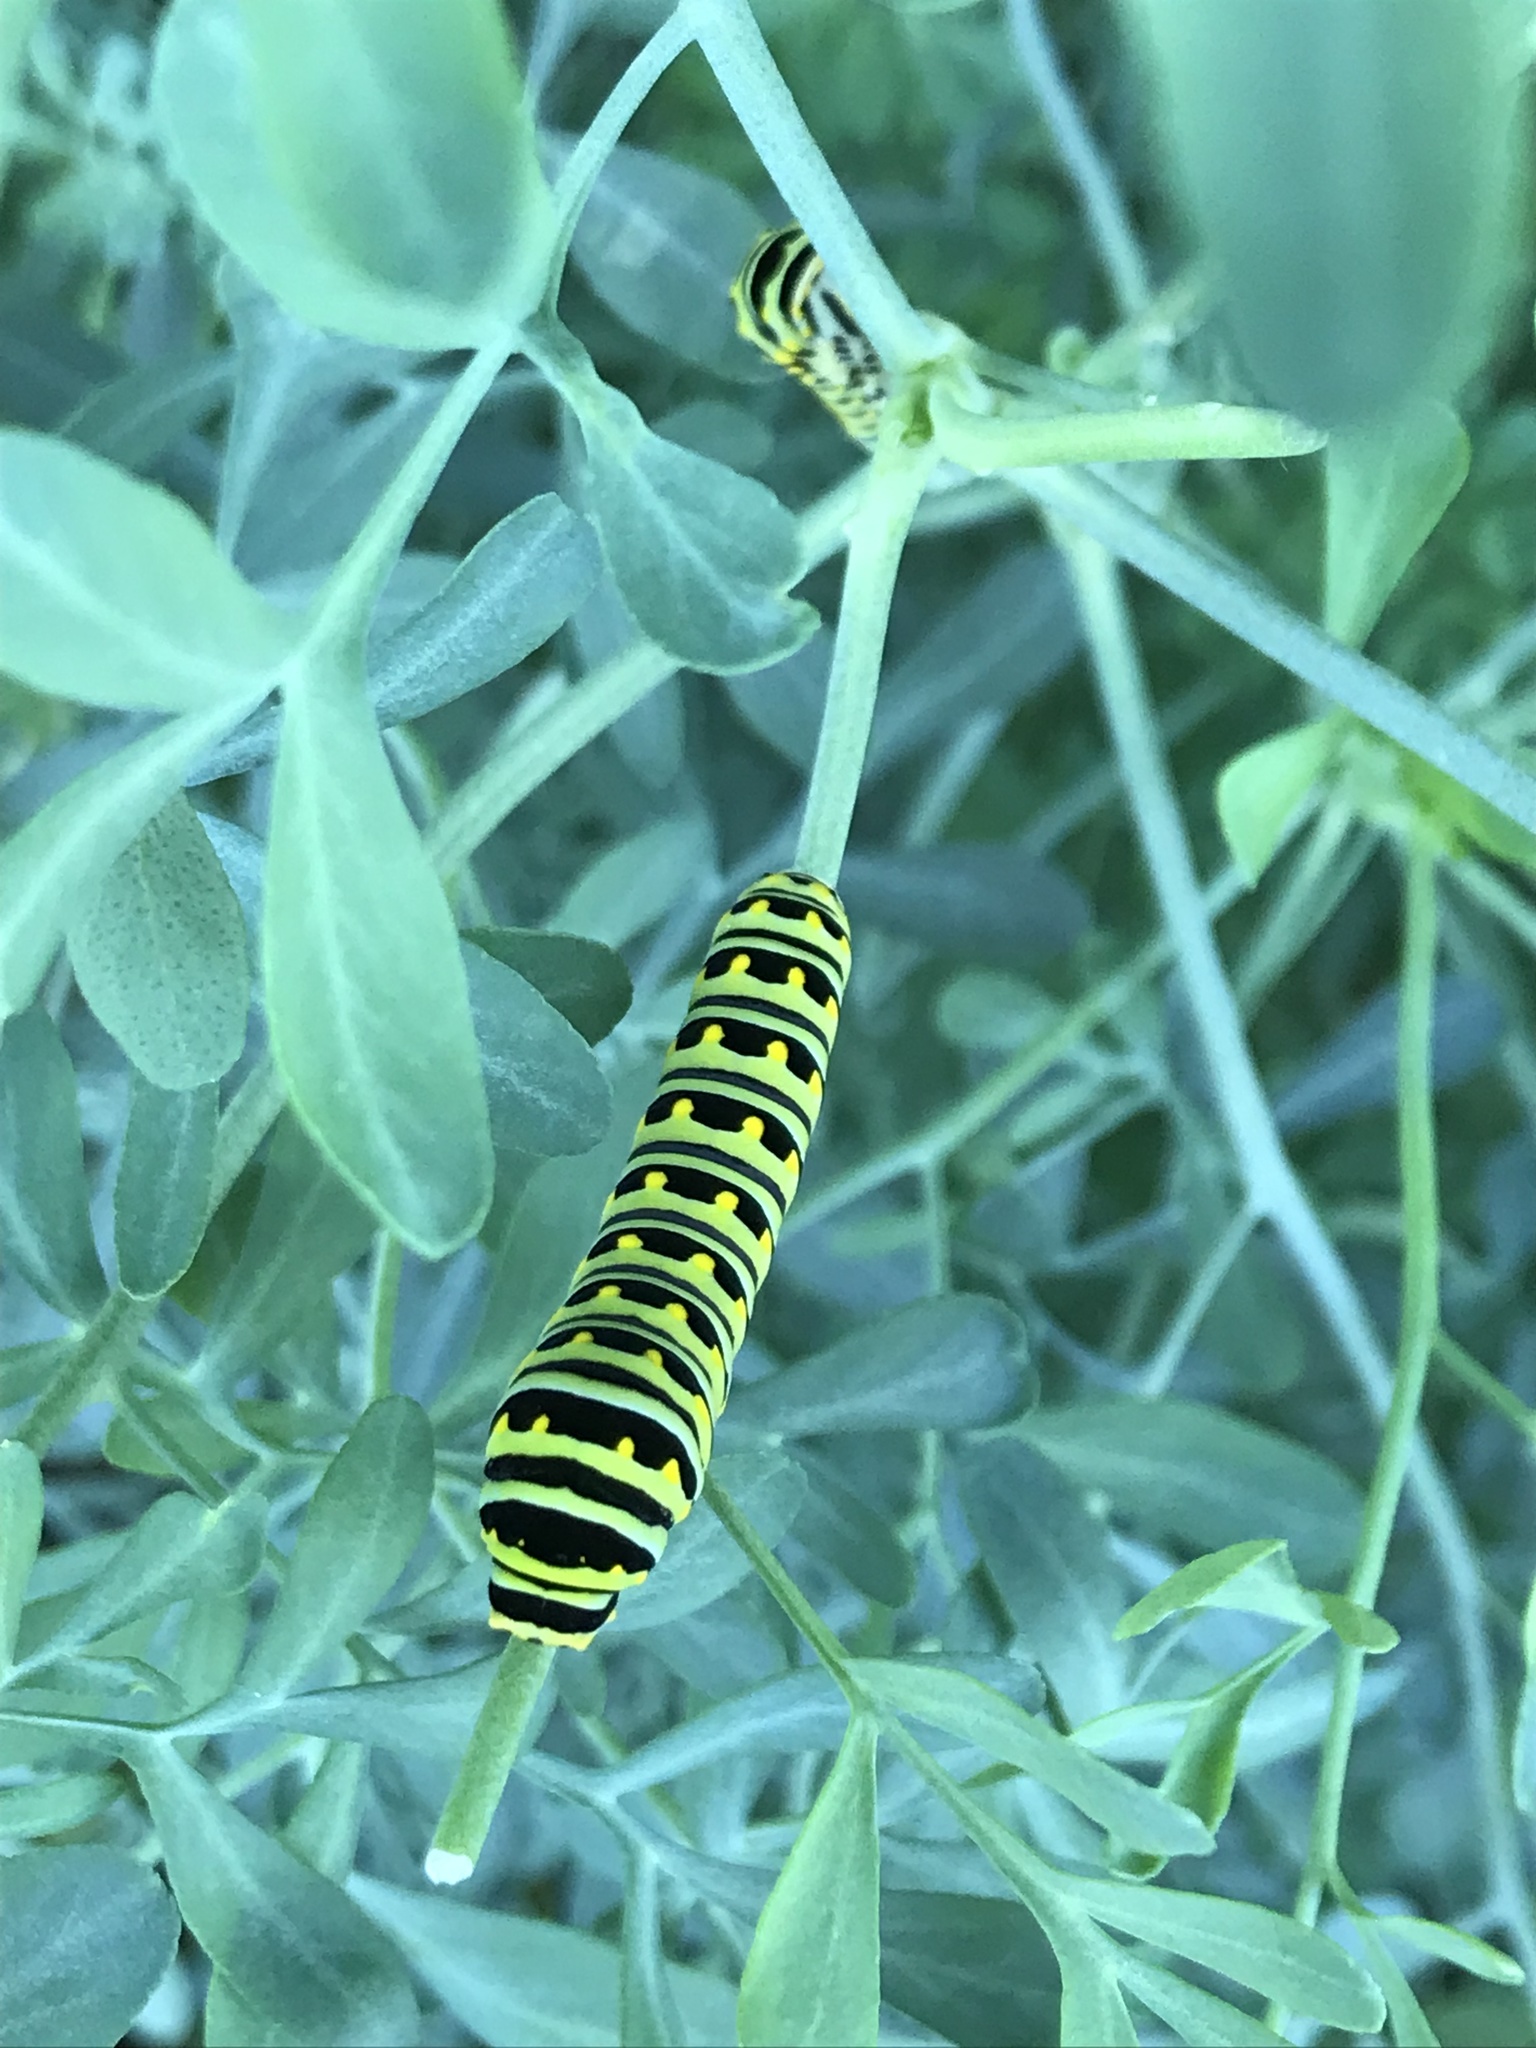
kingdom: Animalia
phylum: Arthropoda
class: Insecta
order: Lepidoptera
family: Papilionidae
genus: Papilio
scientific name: Papilio polyxenes
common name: Black swallowtail
